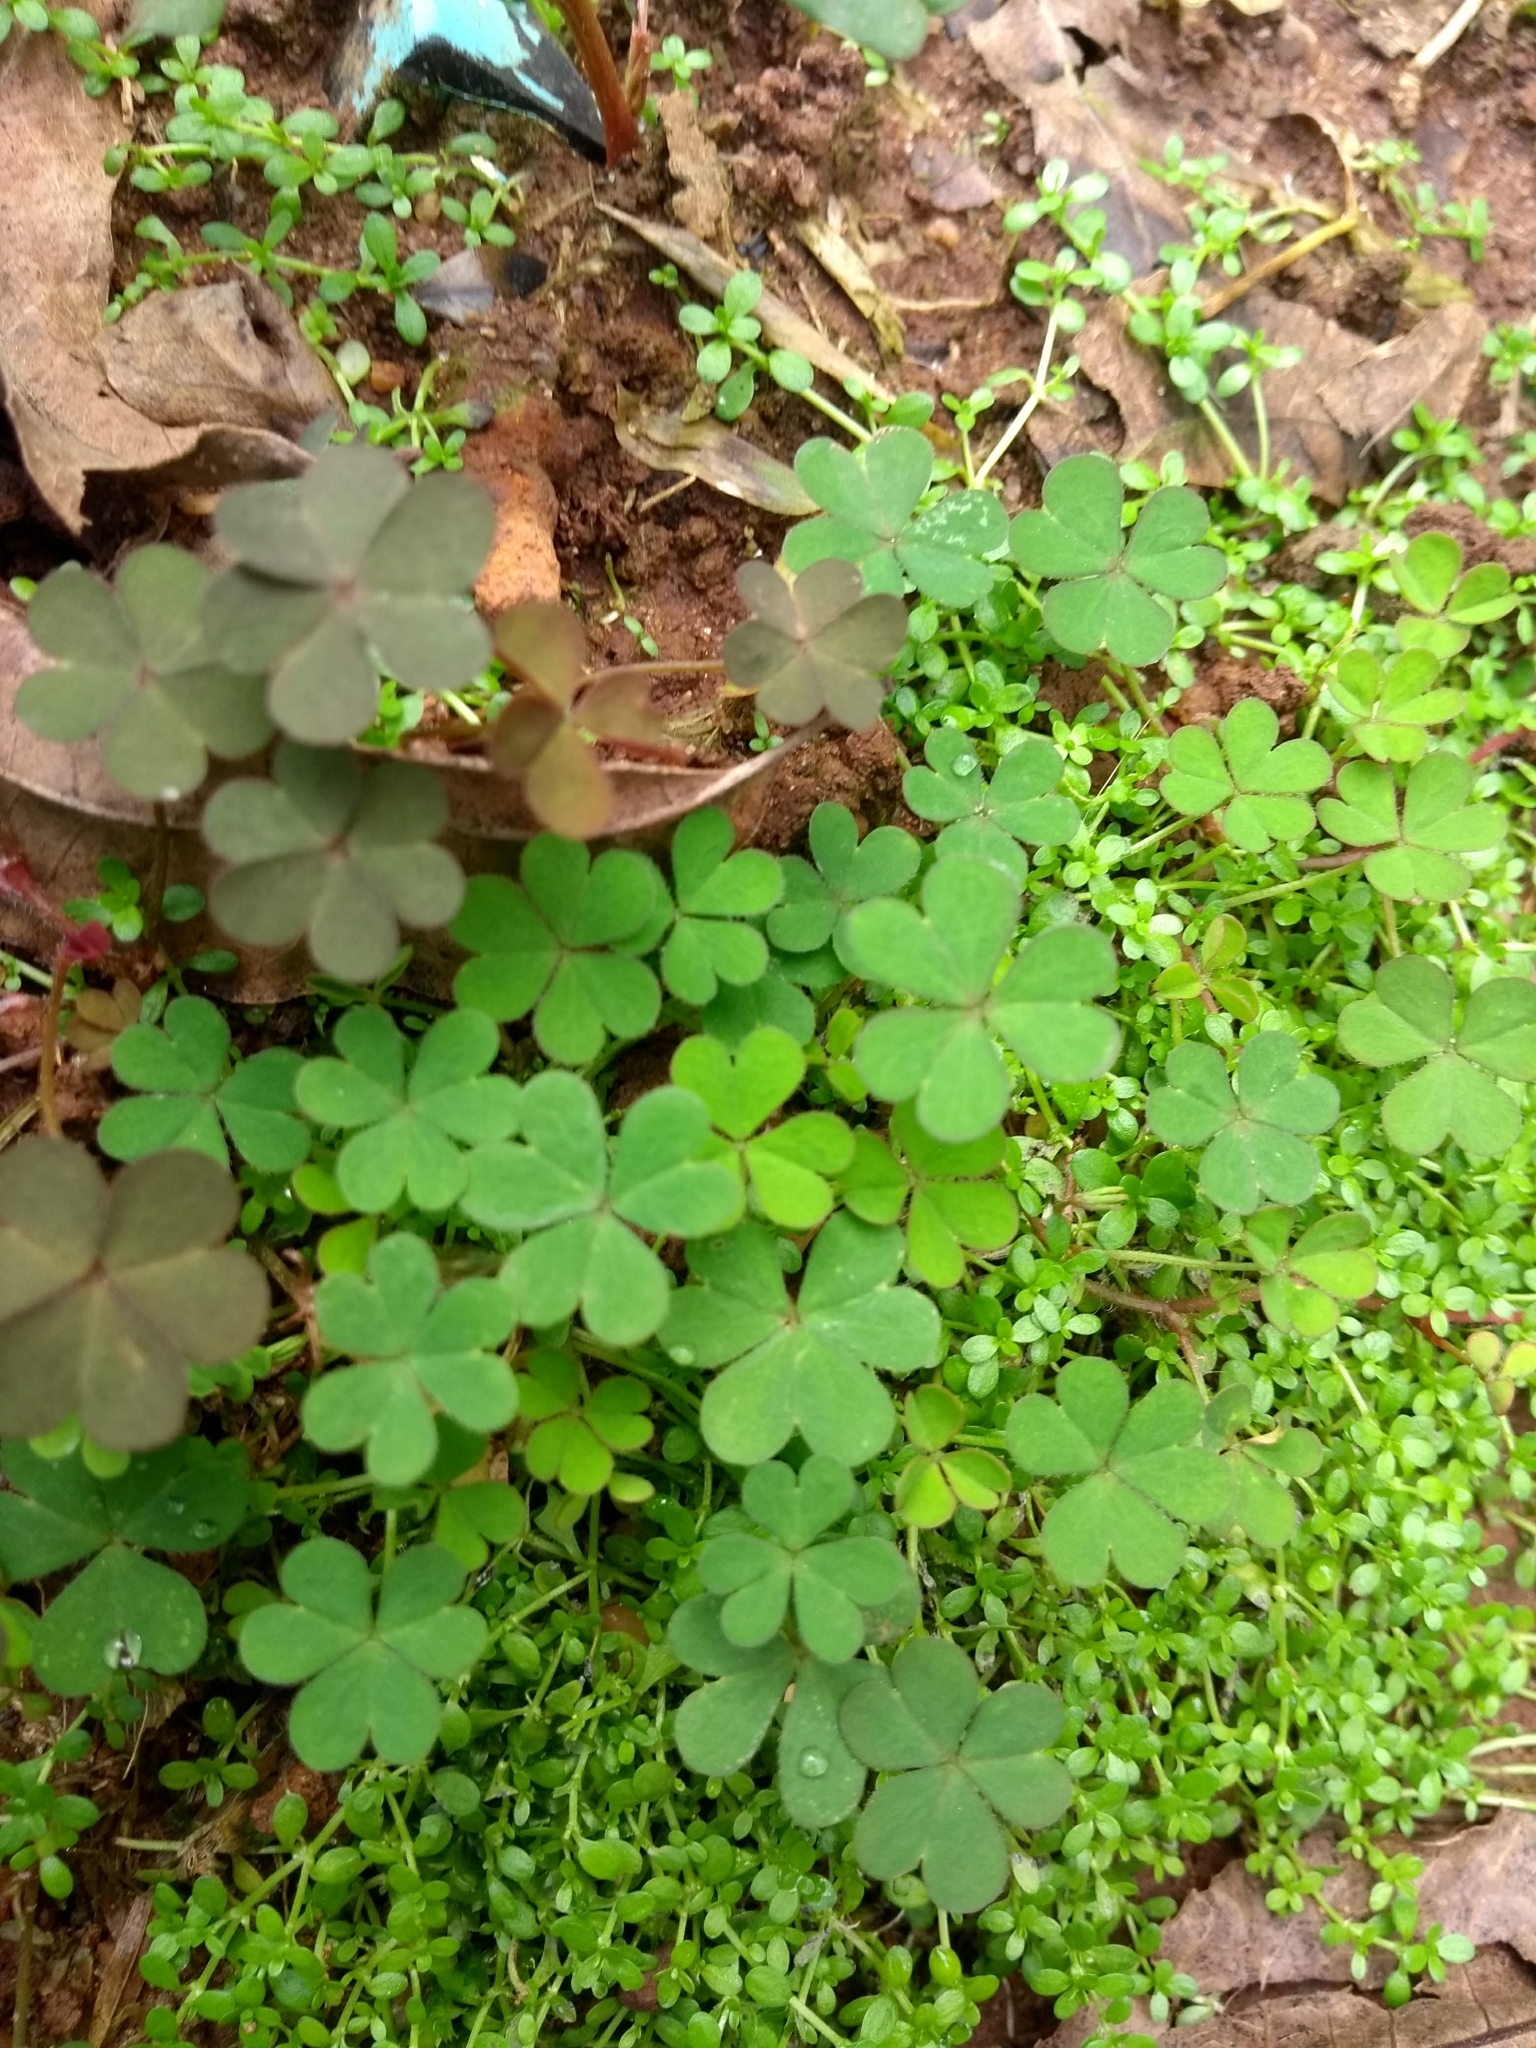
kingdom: Plantae
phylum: Tracheophyta
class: Magnoliopsida
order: Oxalidales
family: Oxalidaceae
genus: Oxalis
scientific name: Oxalis corniculata
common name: Procumbent yellow-sorrel
